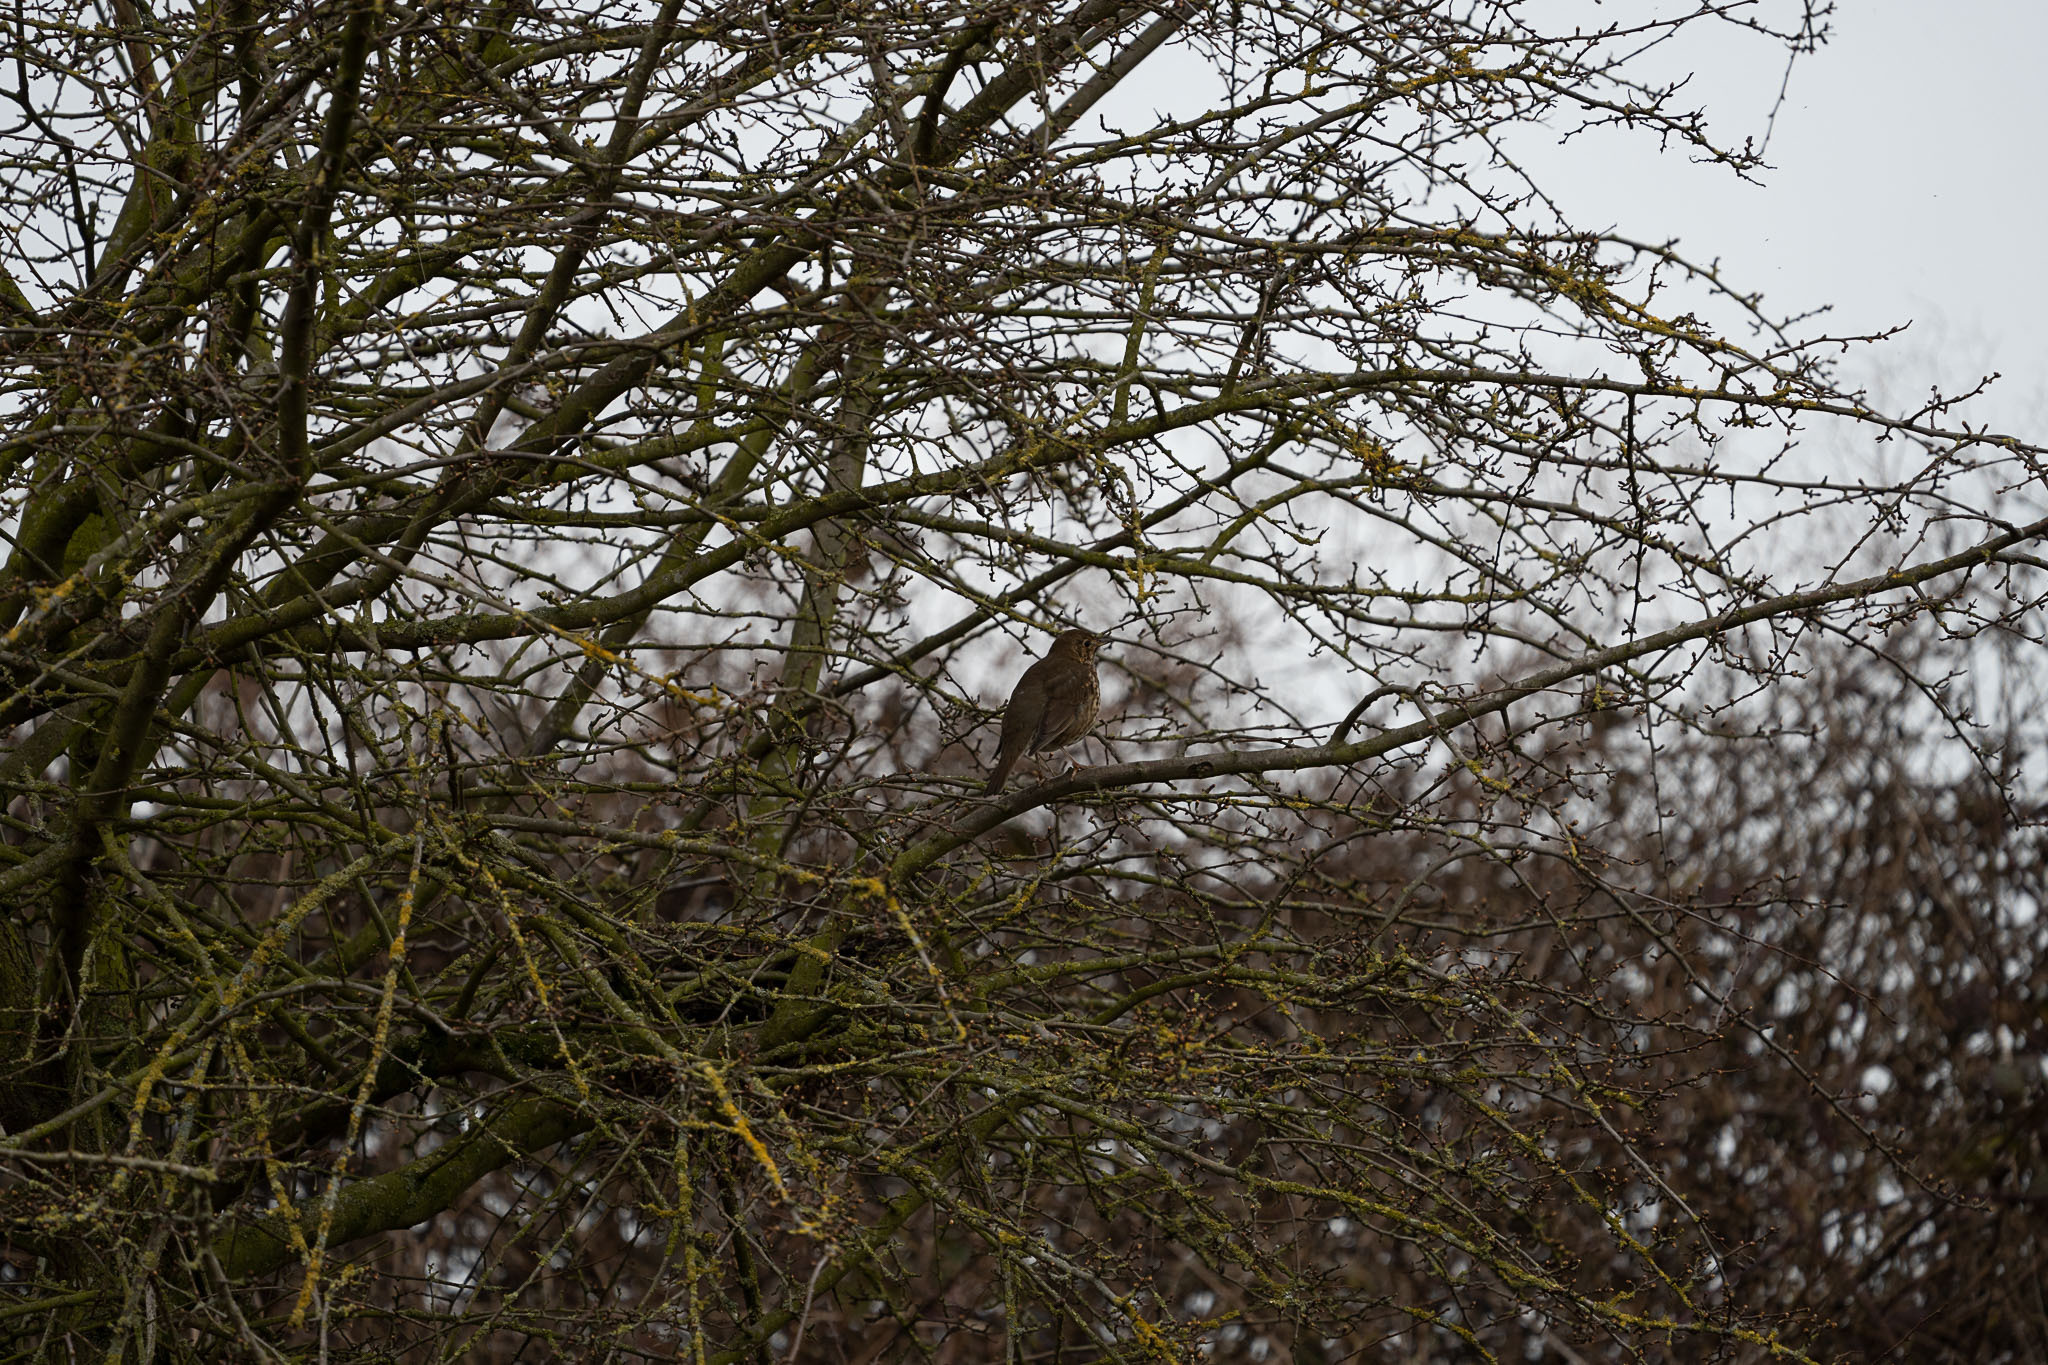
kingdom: Animalia
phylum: Chordata
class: Aves
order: Passeriformes
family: Turdidae
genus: Turdus
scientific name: Turdus philomelos
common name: Song thrush
